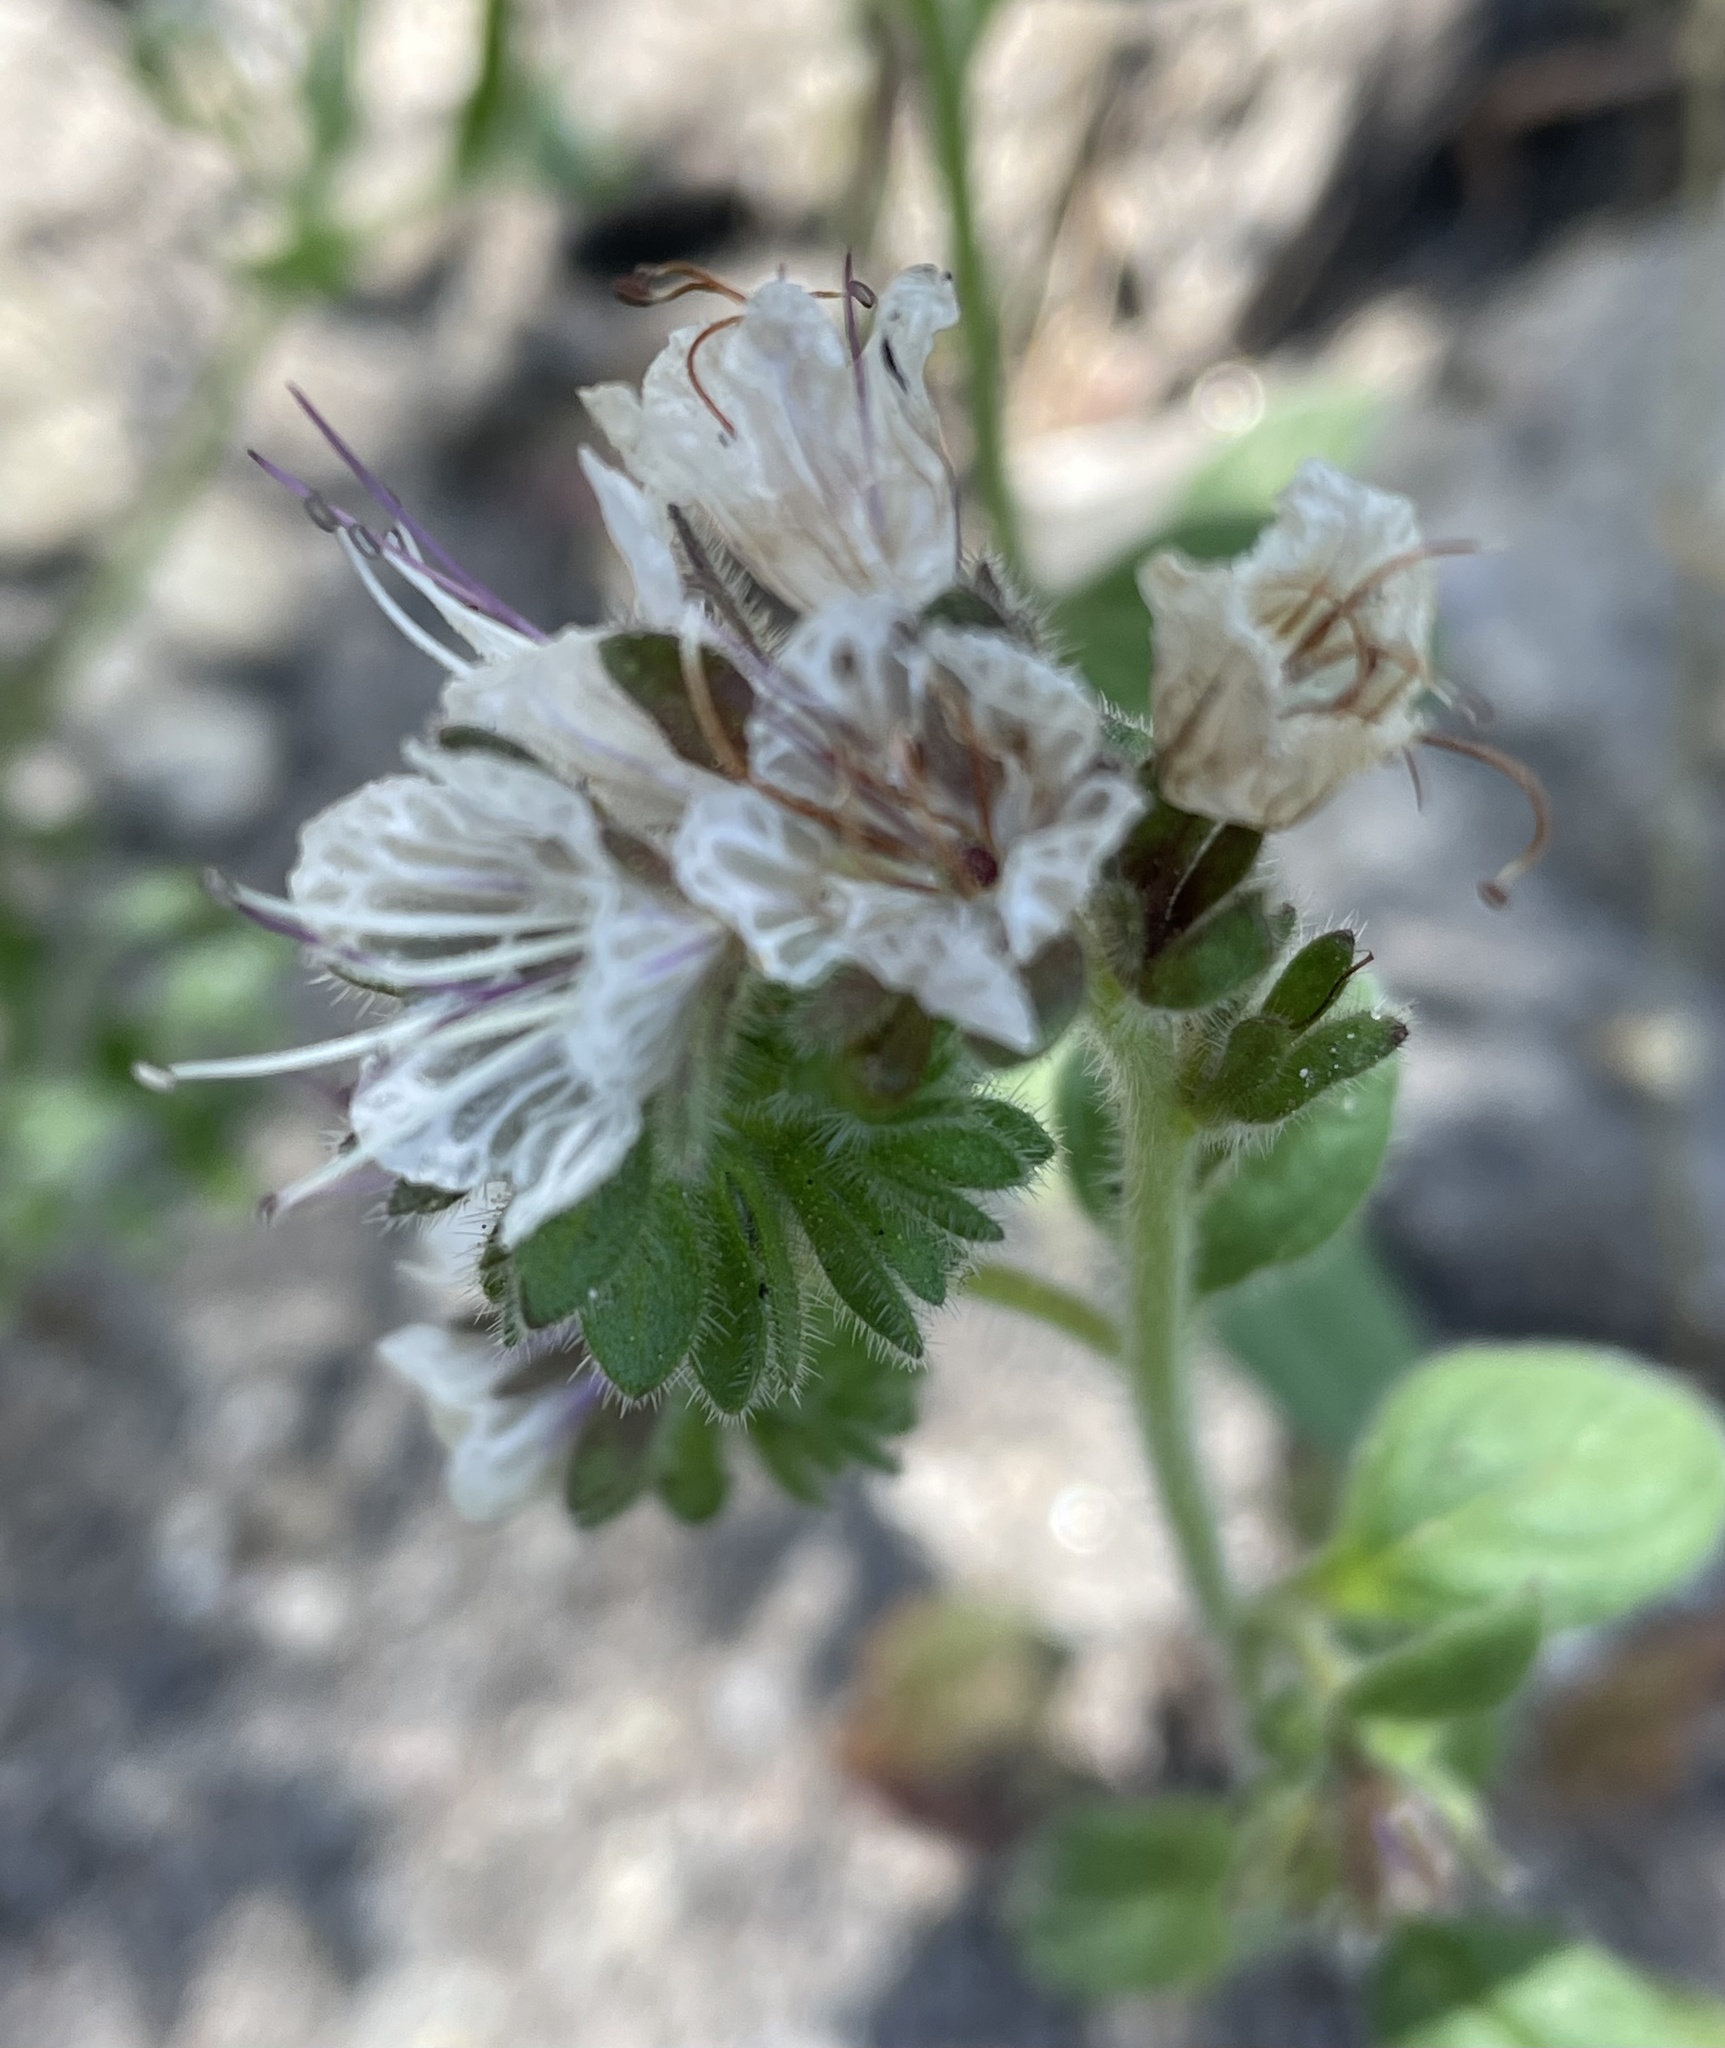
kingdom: Plantae
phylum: Tracheophyta
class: Magnoliopsida
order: Boraginales
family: Hydrophyllaceae
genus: Phacelia
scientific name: Phacelia grisea
